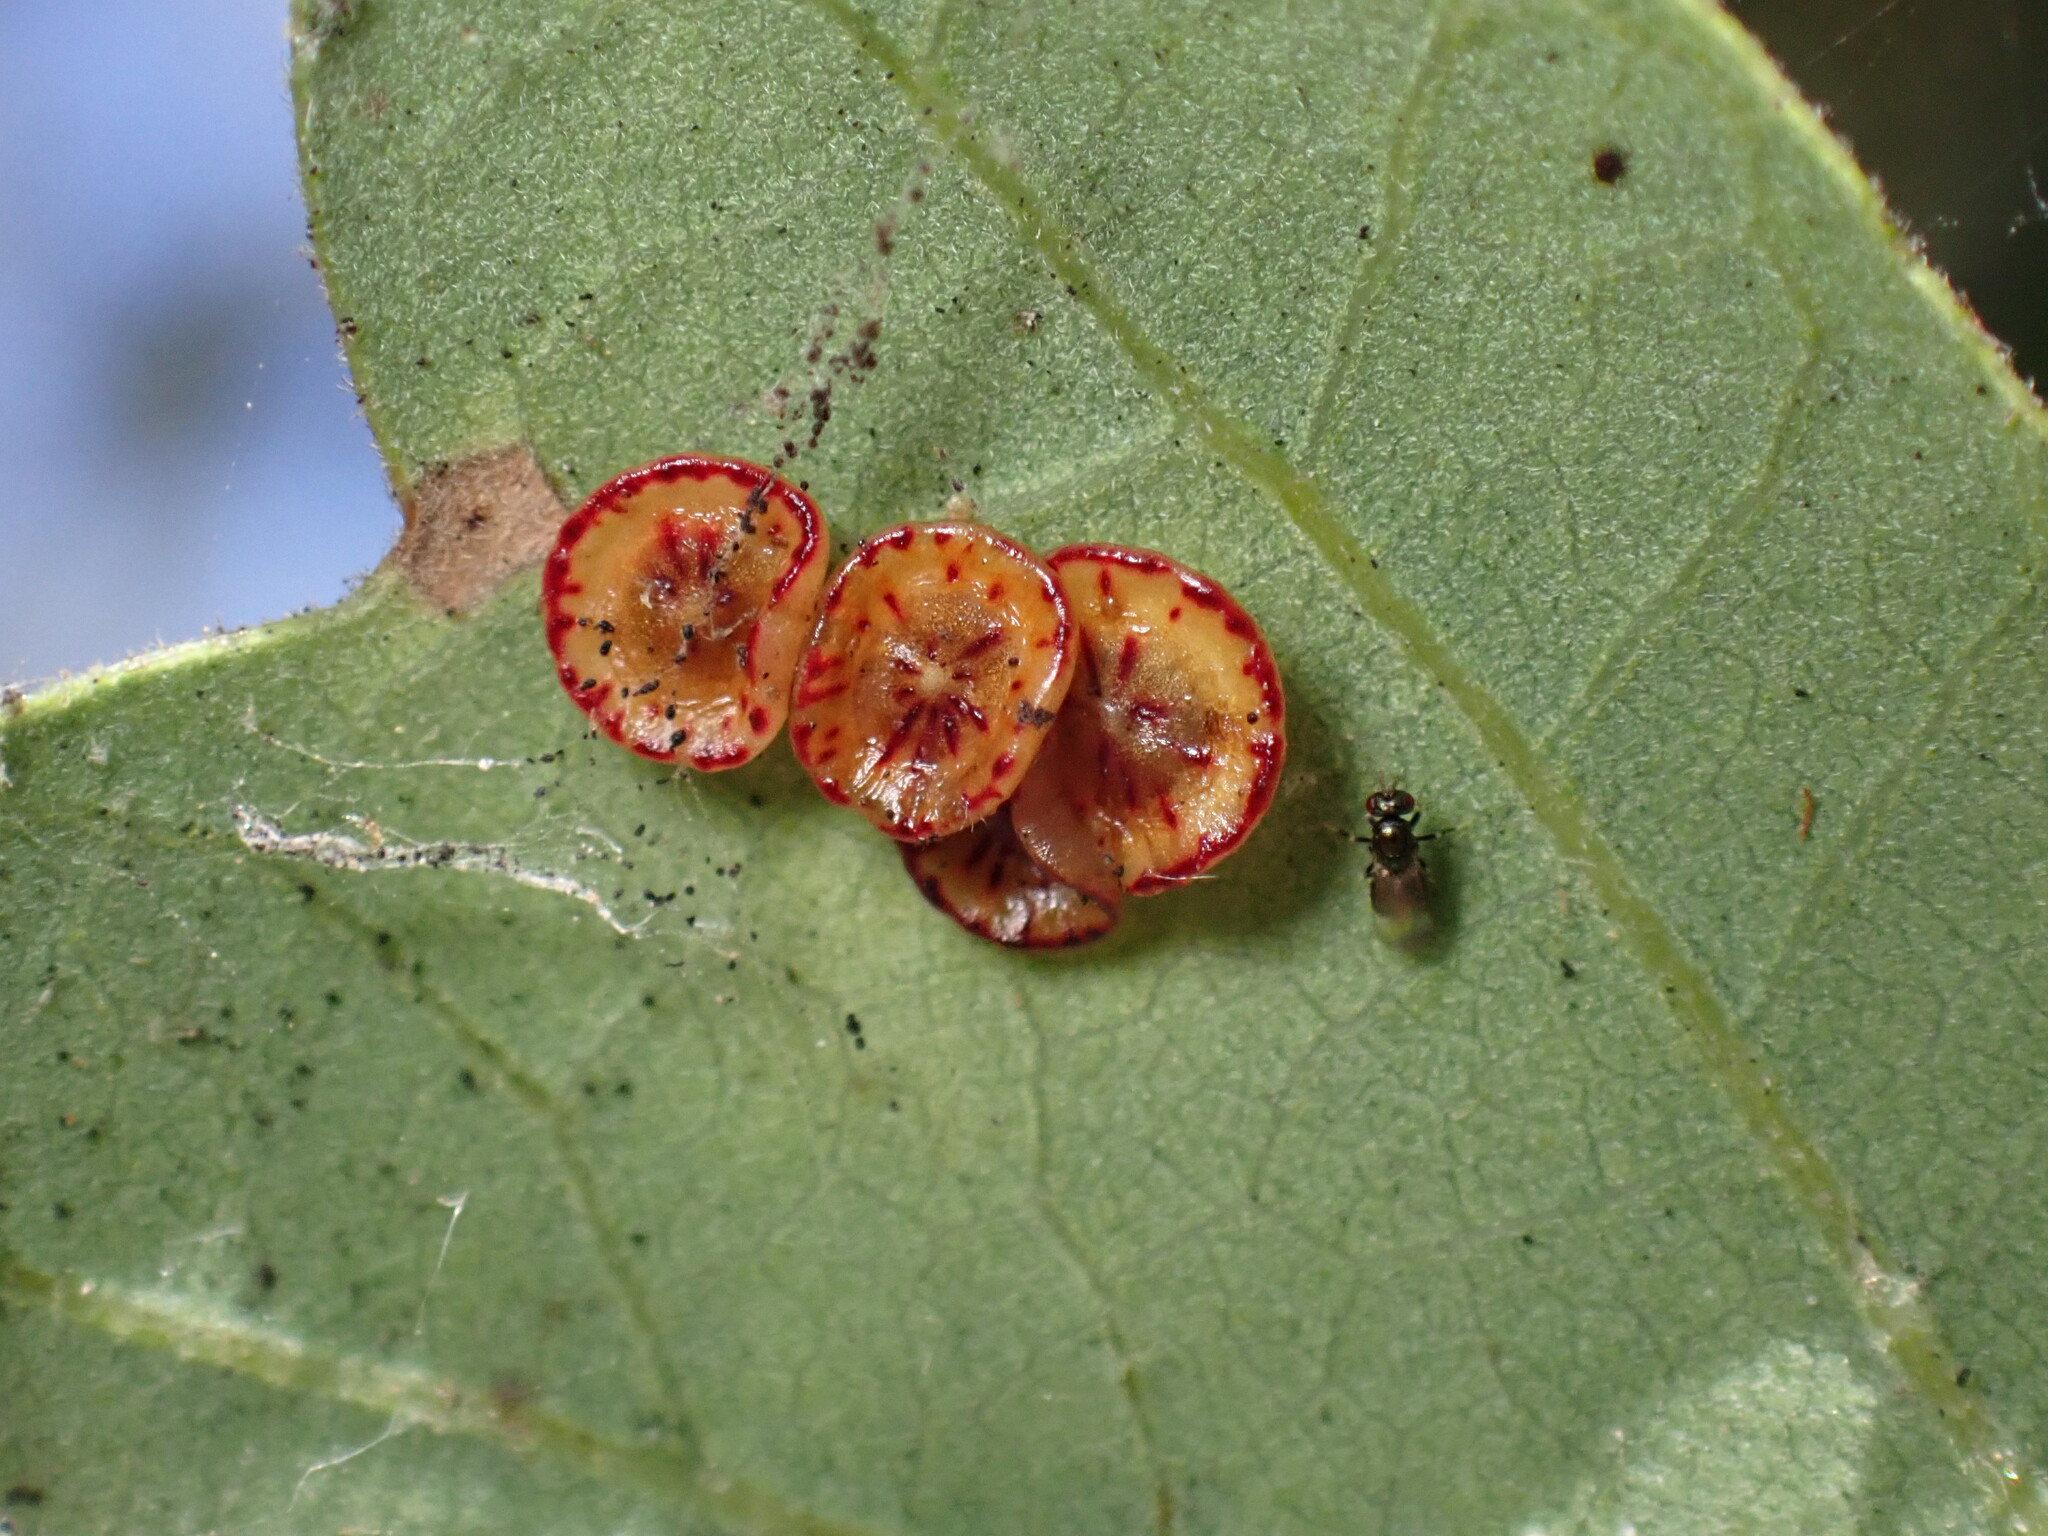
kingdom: Animalia
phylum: Arthropoda
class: Insecta
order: Hymenoptera
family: Cynipidae
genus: Andricus
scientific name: Andricus
